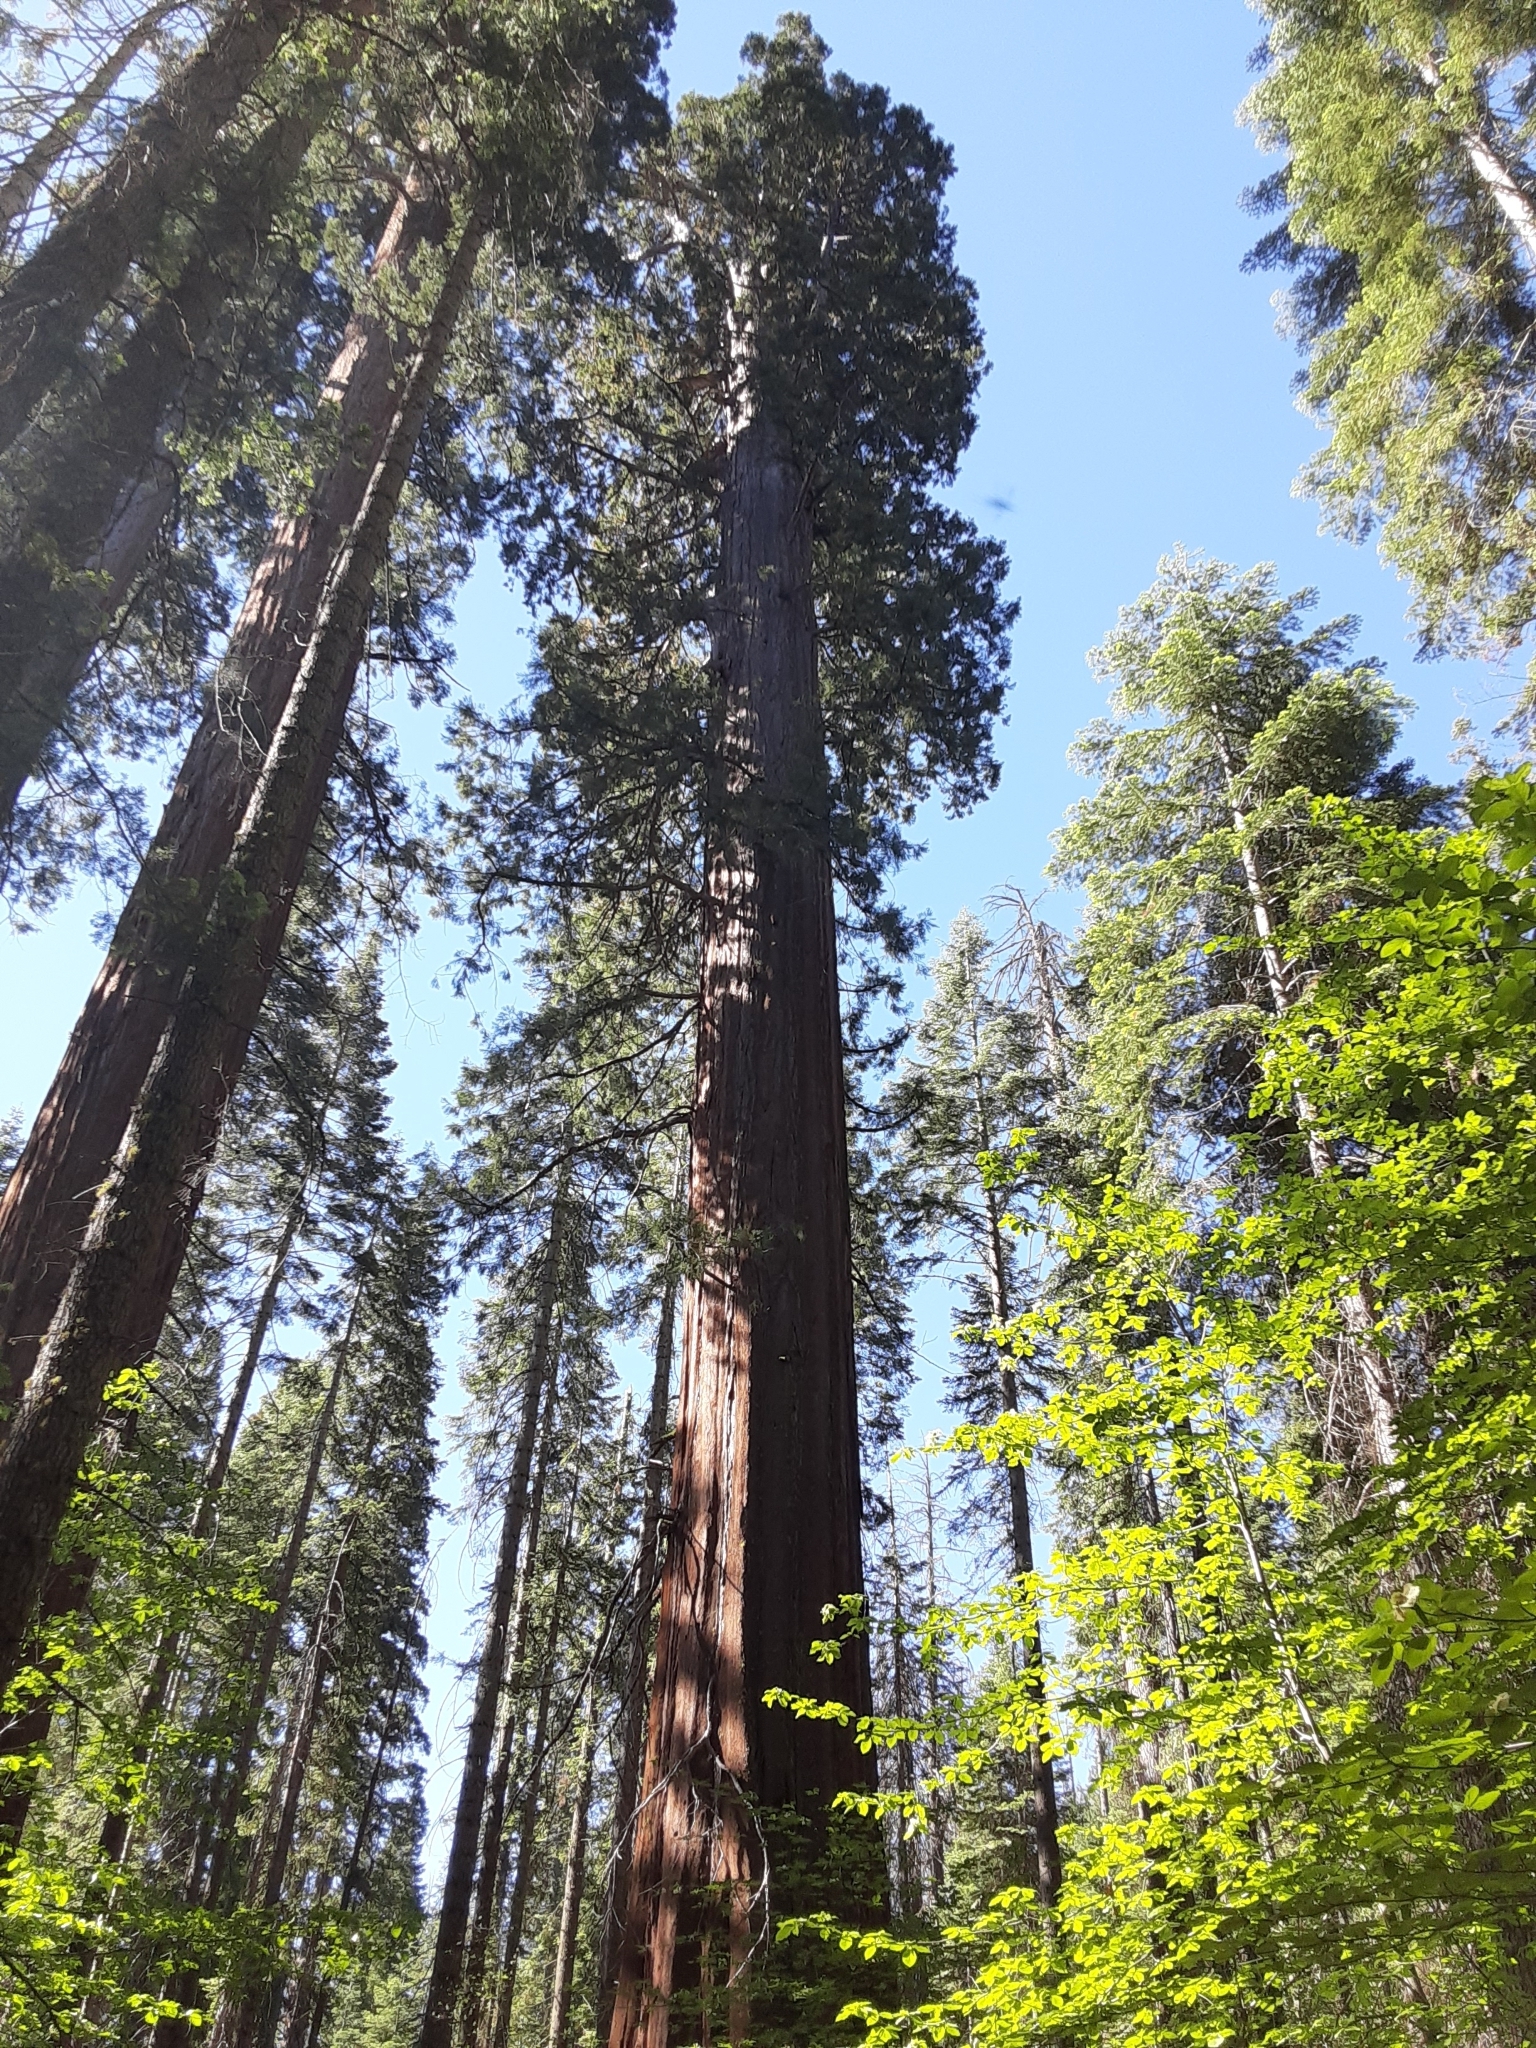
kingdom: Plantae
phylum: Tracheophyta
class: Pinopsida
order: Pinales
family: Cupressaceae
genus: Sequoiadendron
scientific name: Sequoiadendron giganteum
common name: Wellingtonia
